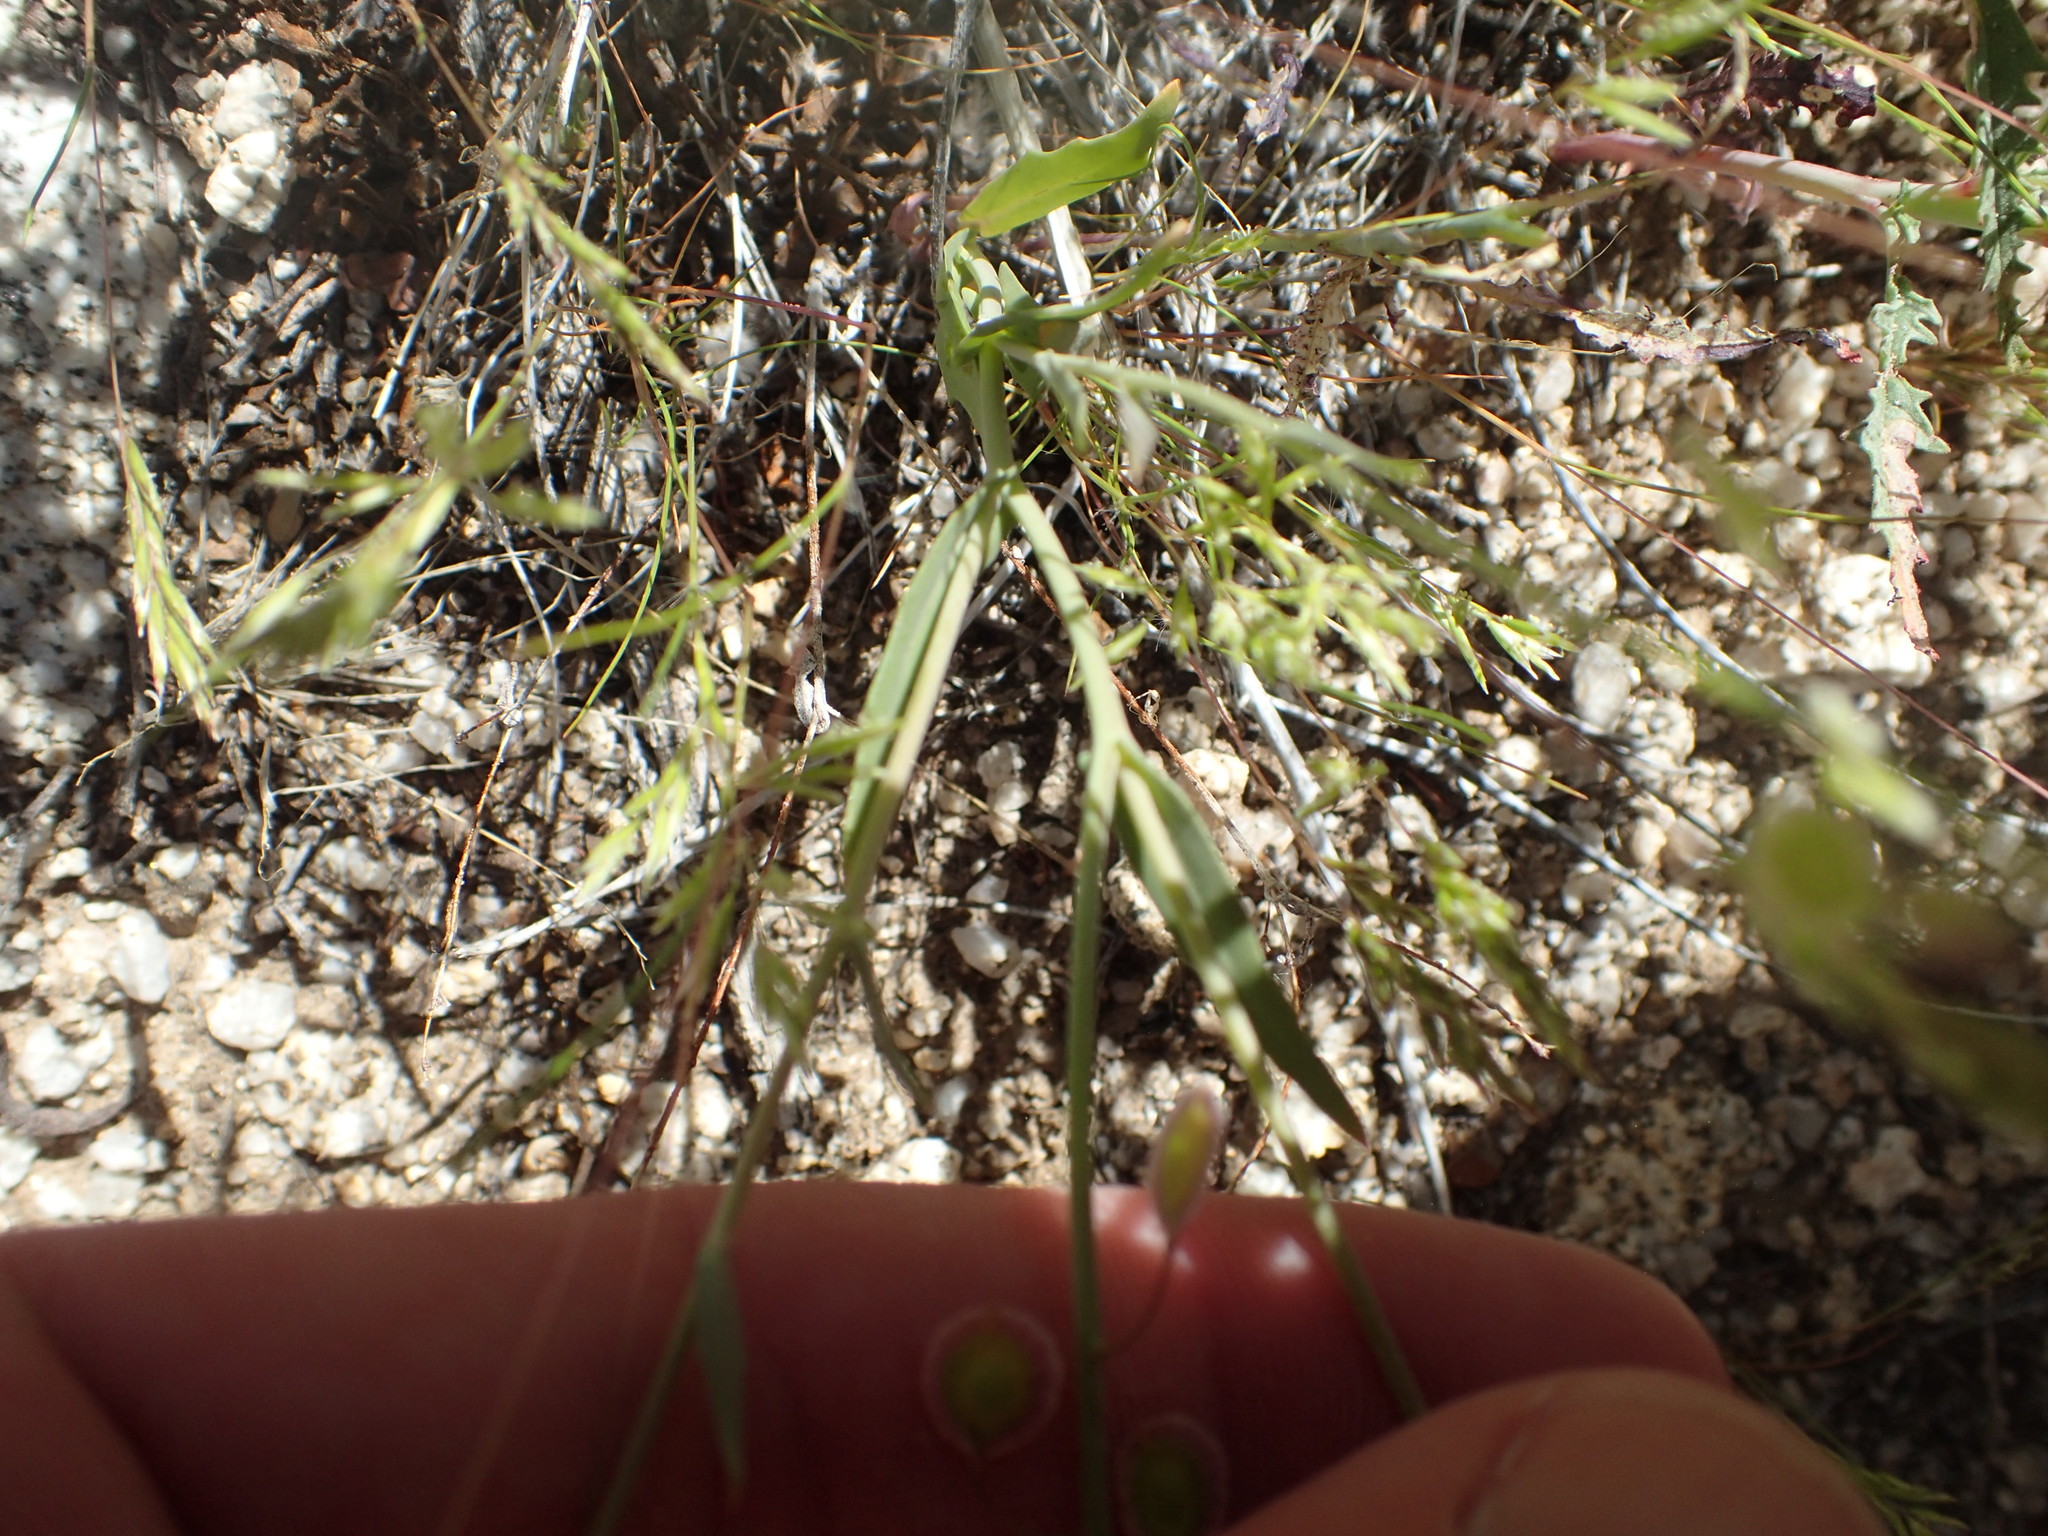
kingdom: Plantae
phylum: Tracheophyta
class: Magnoliopsida
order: Brassicales
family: Brassicaceae
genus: Thysanocarpus
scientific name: Thysanocarpus curvipes
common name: Sand fringepod
